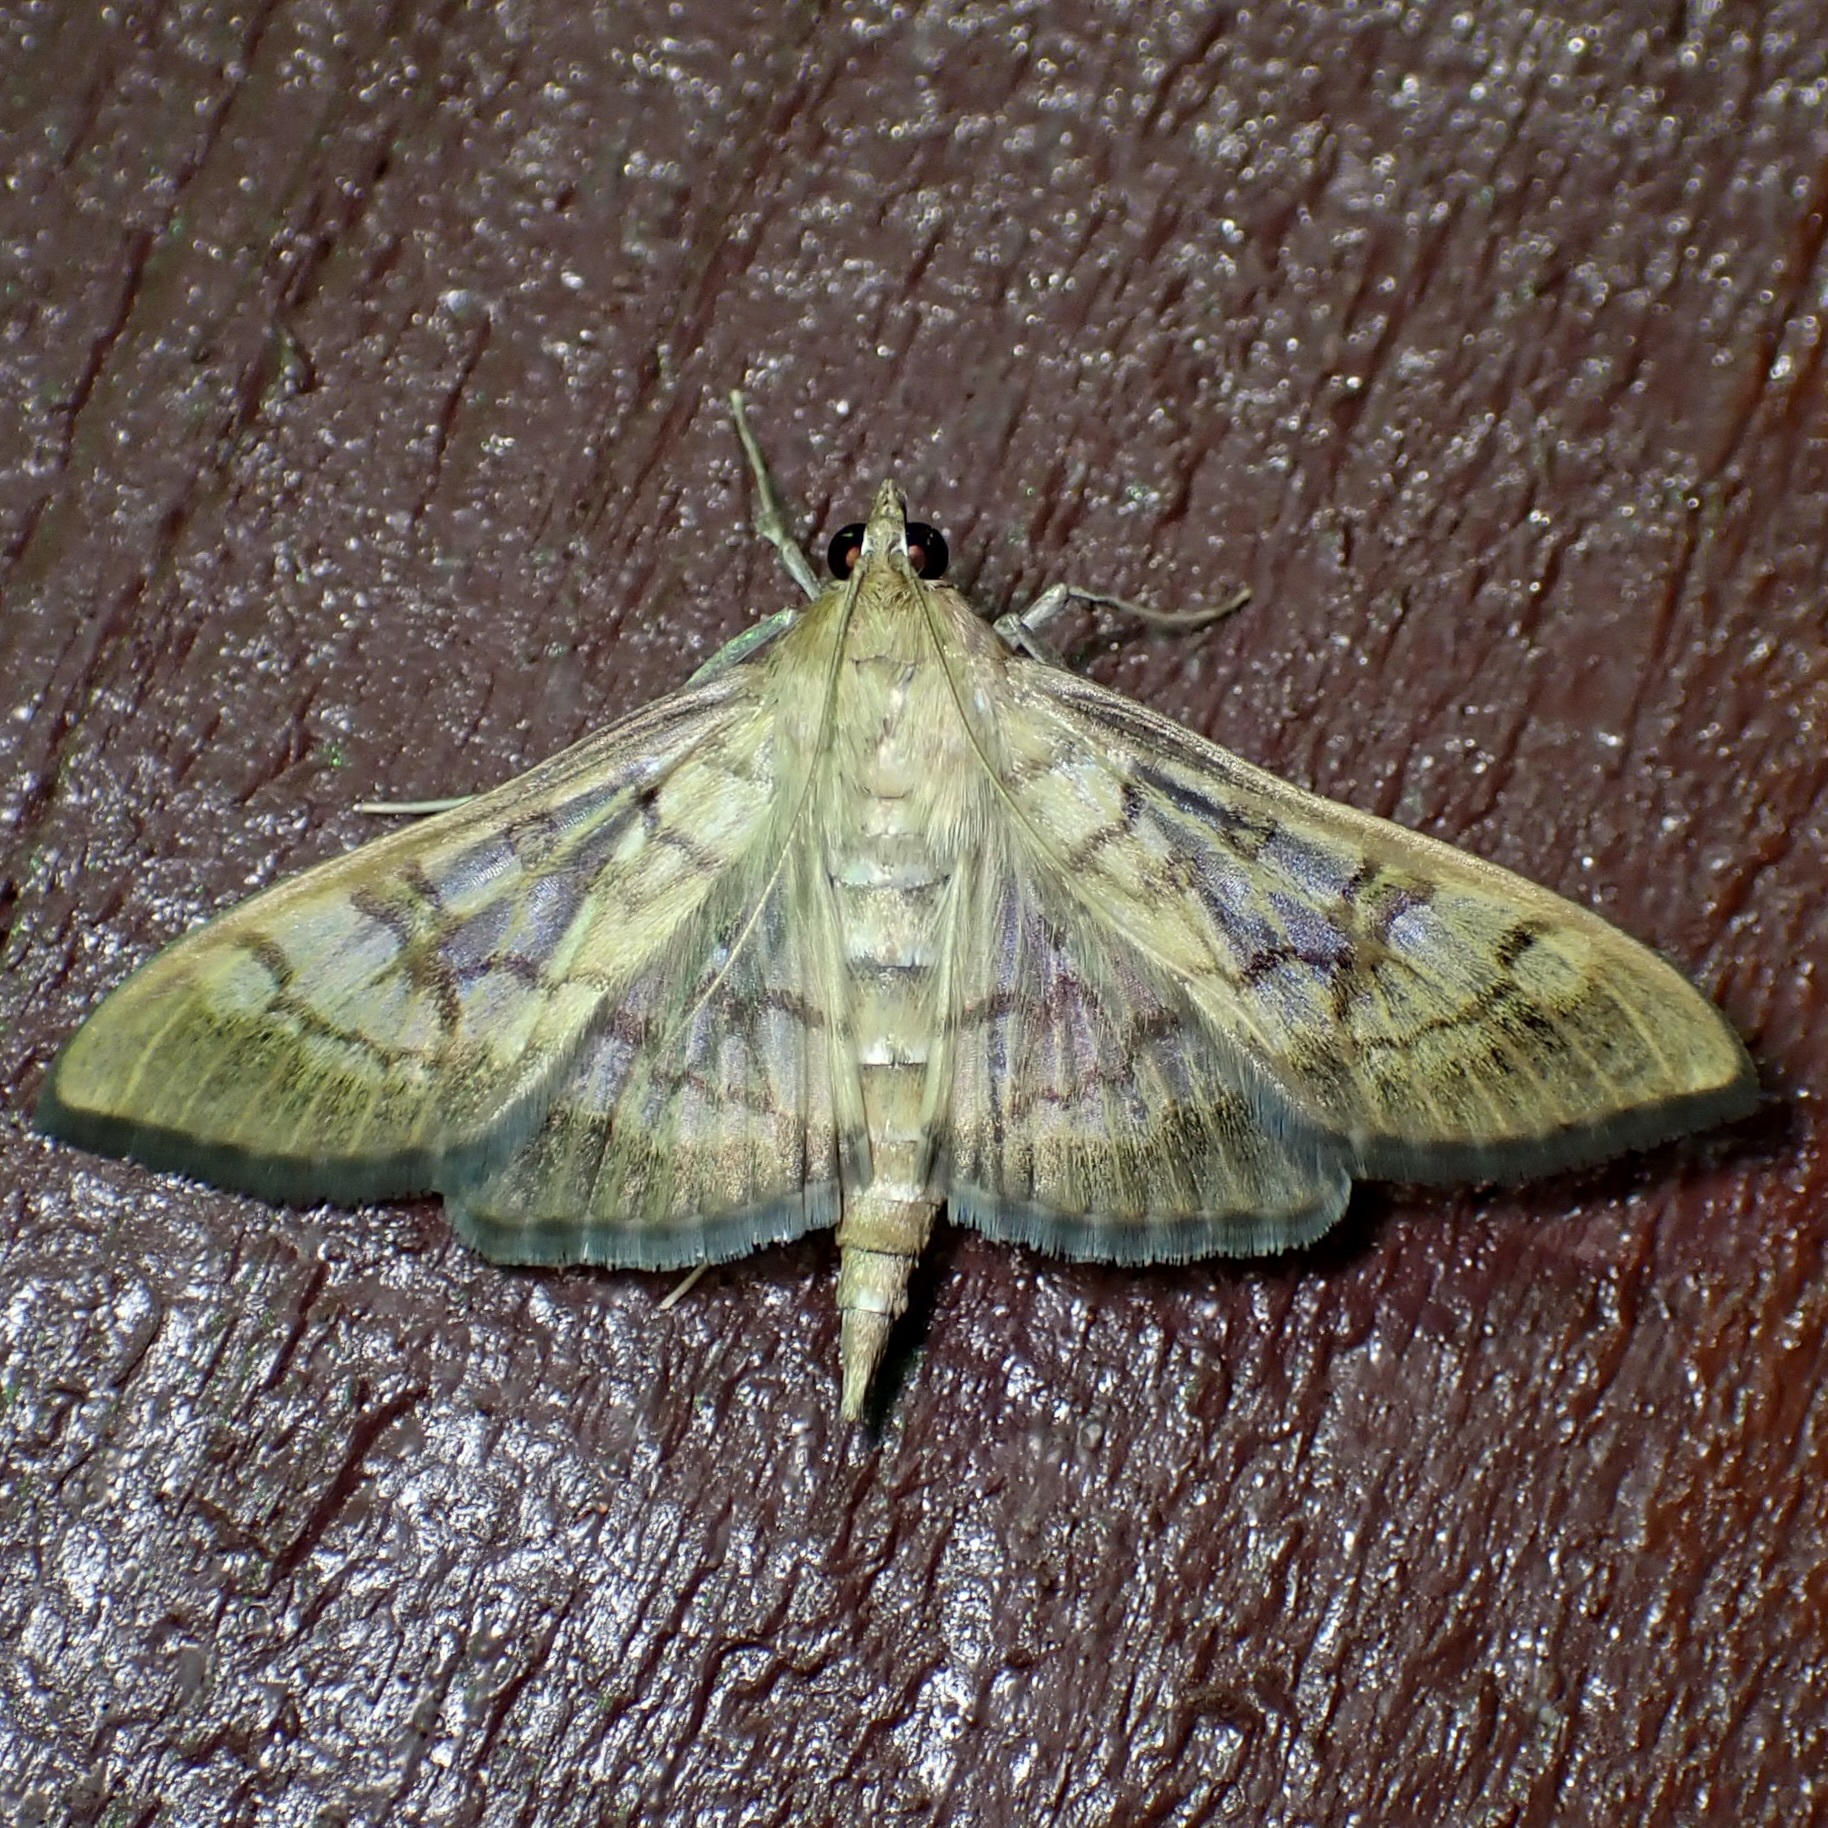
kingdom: Animalia
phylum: Arthropoda
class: Insecta
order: Lepidoptera
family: Crambidae
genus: Mimorista
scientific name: Mimorista subcostalis
